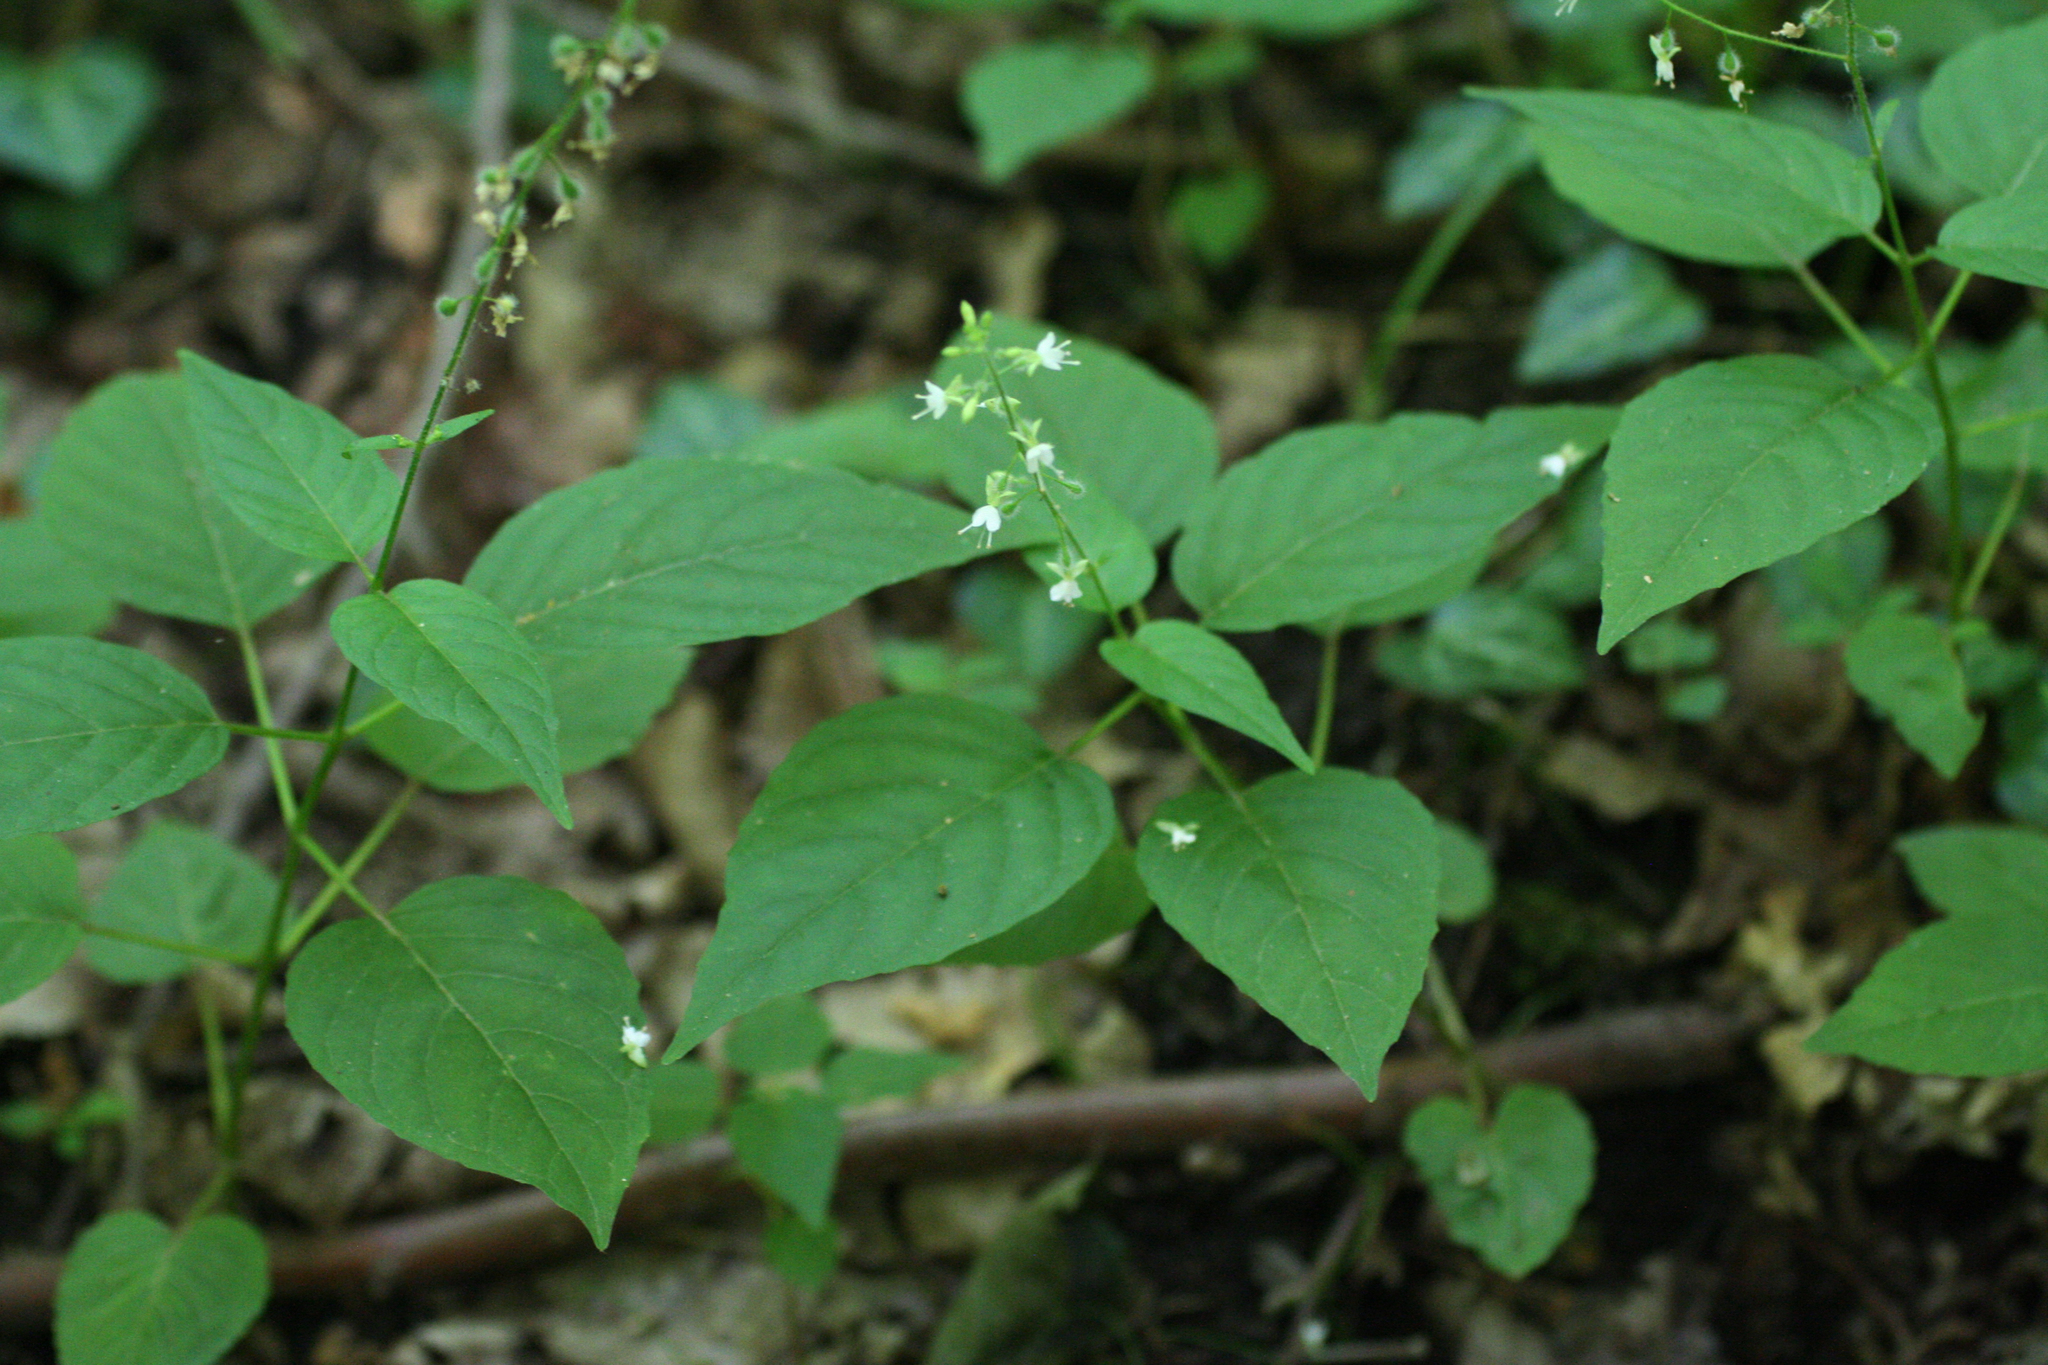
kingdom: Plantae
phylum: Tracheophyta
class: Magnoliopsida
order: Myrtales
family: Onagraceae
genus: Circaea
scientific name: Circaea lutetiana
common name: Enchanter's-nightshade
